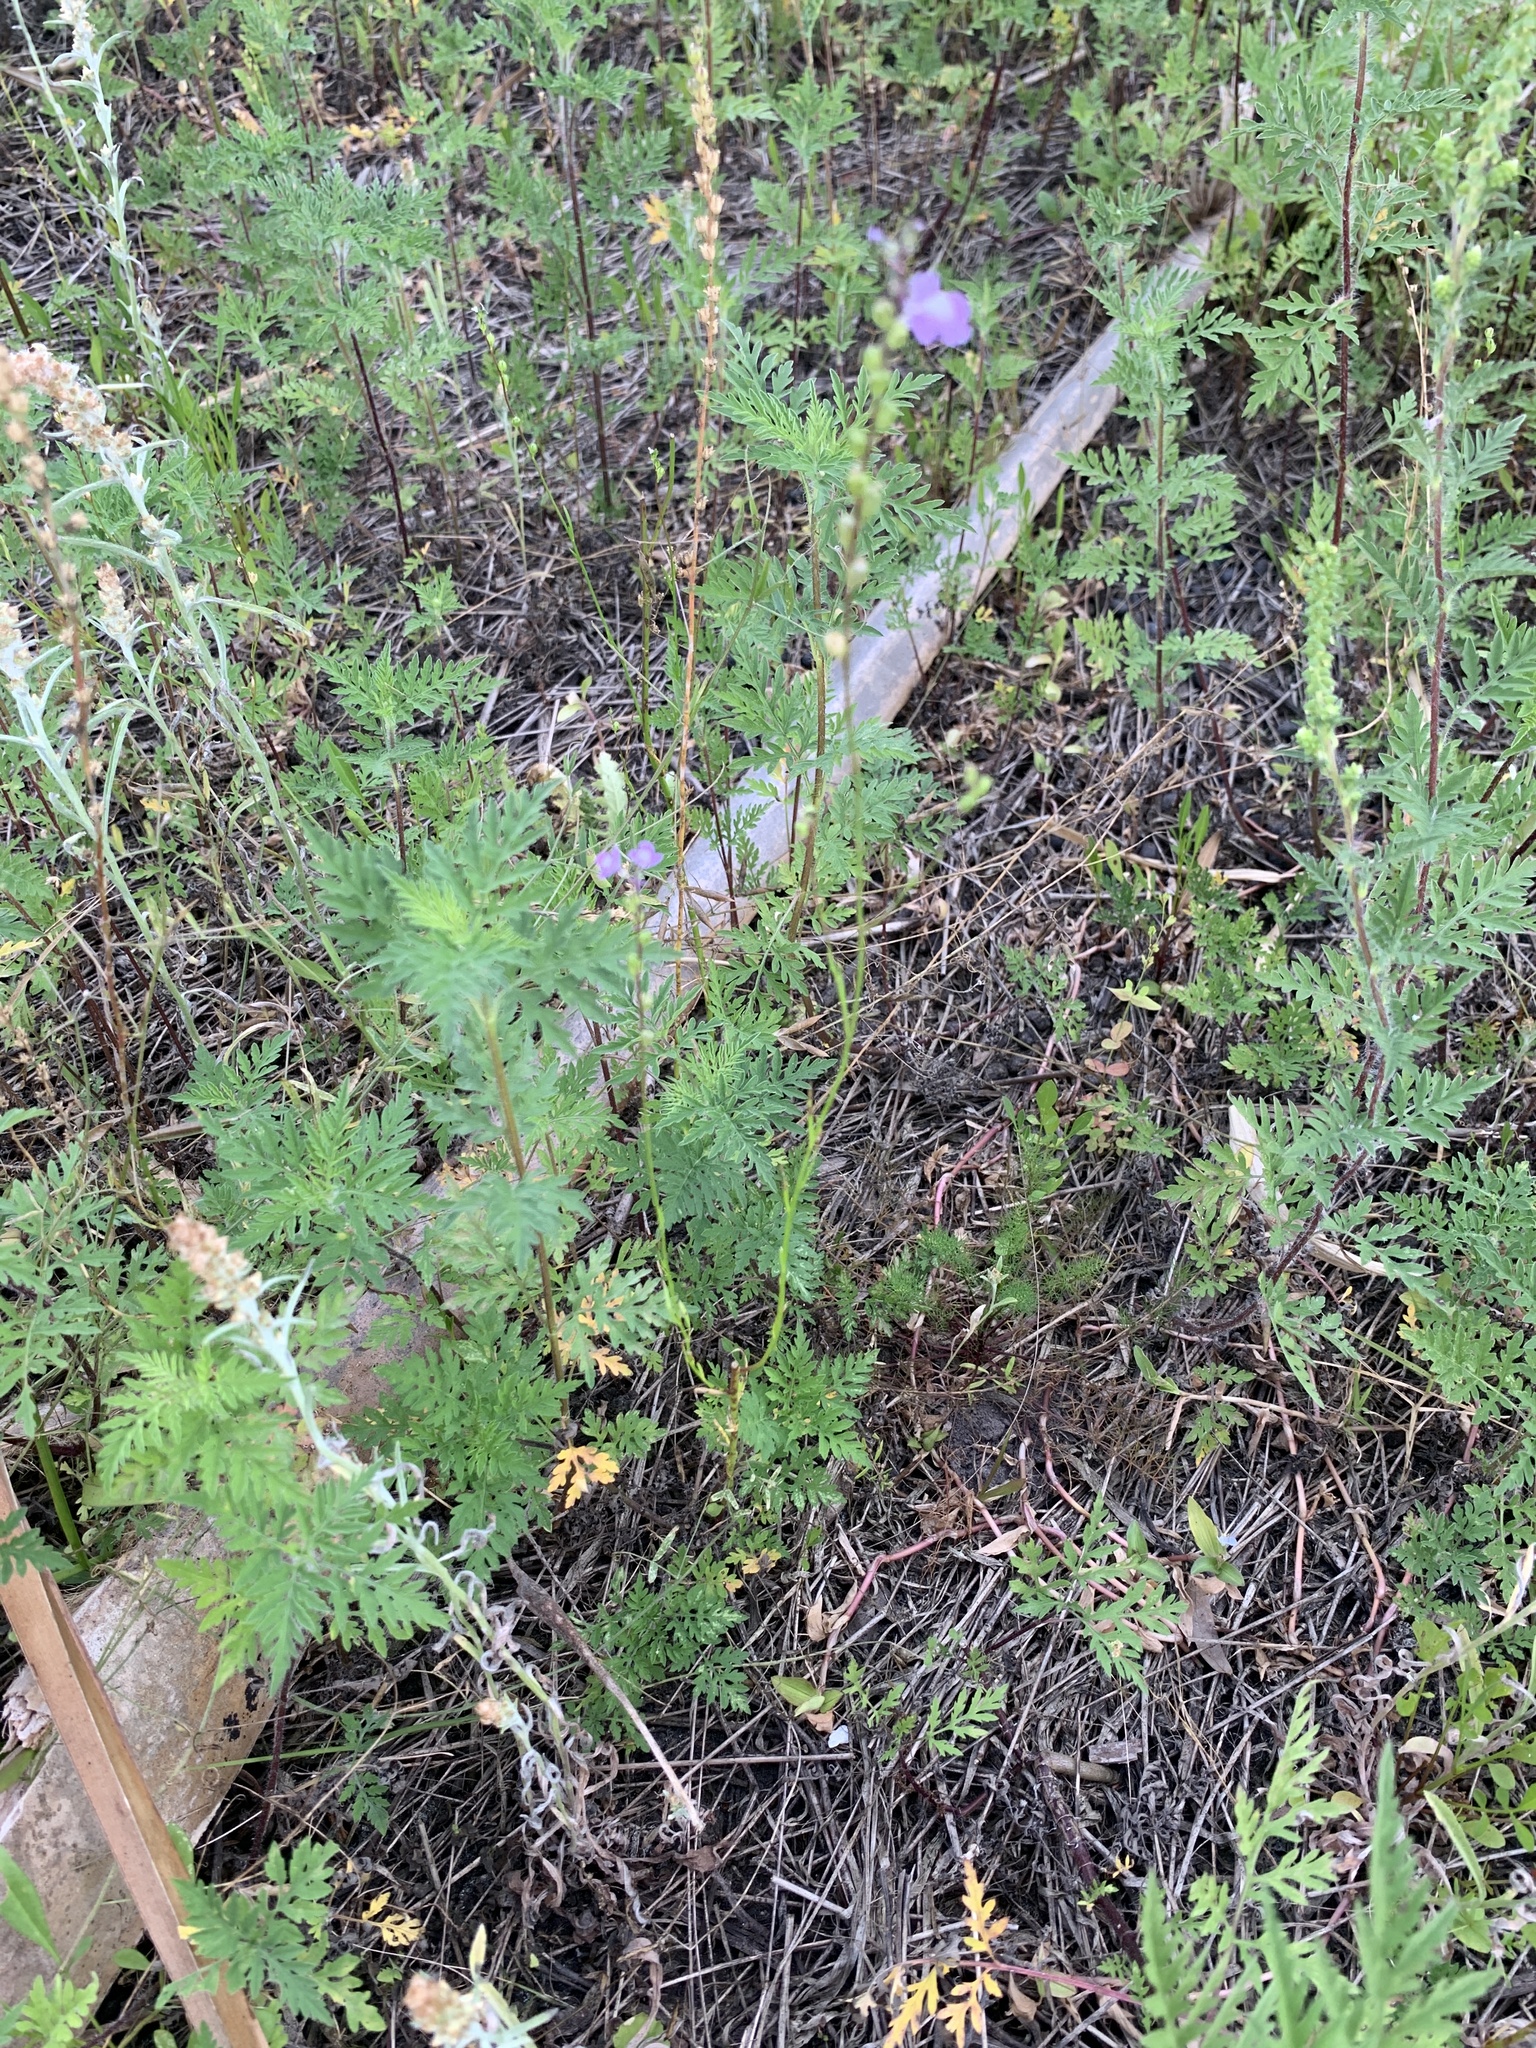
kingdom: Plantae
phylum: Tracheophyta
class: Magnoliopsida
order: Lamiales
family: Plantaginaceae
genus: Nuttallanthus
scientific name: Nuttallanthus canadensis
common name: Blue toadflax
